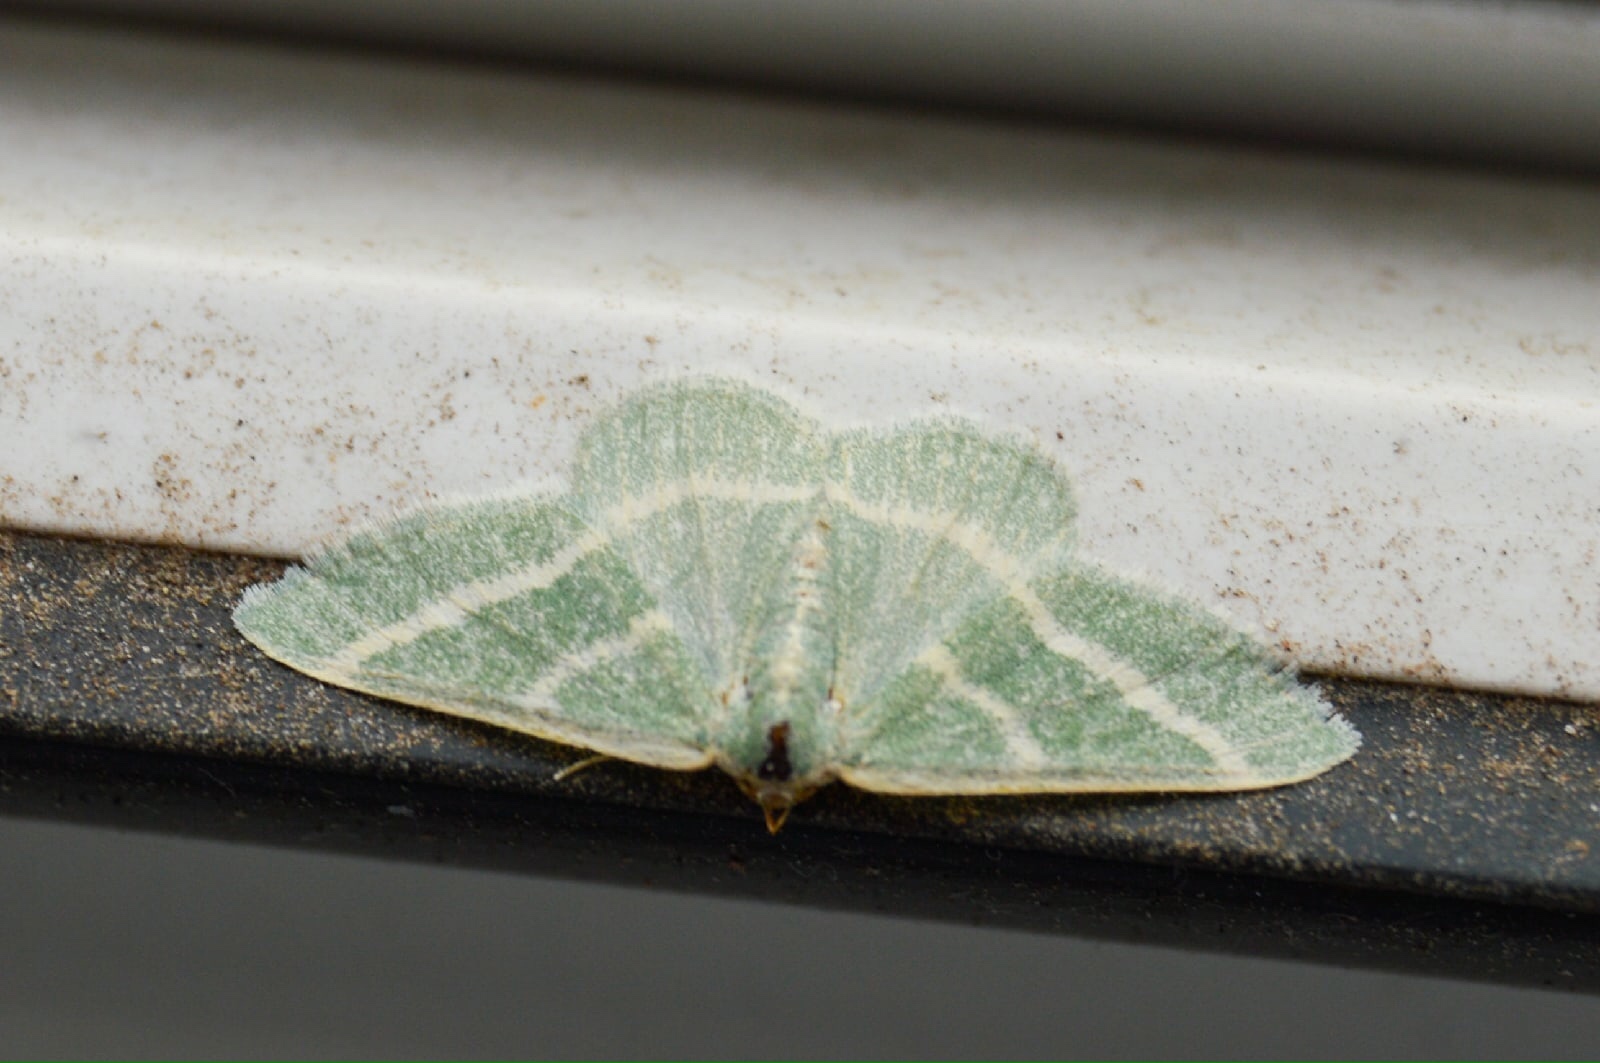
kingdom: Animalia
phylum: Arthropoda
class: Insecta
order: Lepidoptera
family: Geometridae
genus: Microloxia
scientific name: Microloxia herbaria
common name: Herb emerald
